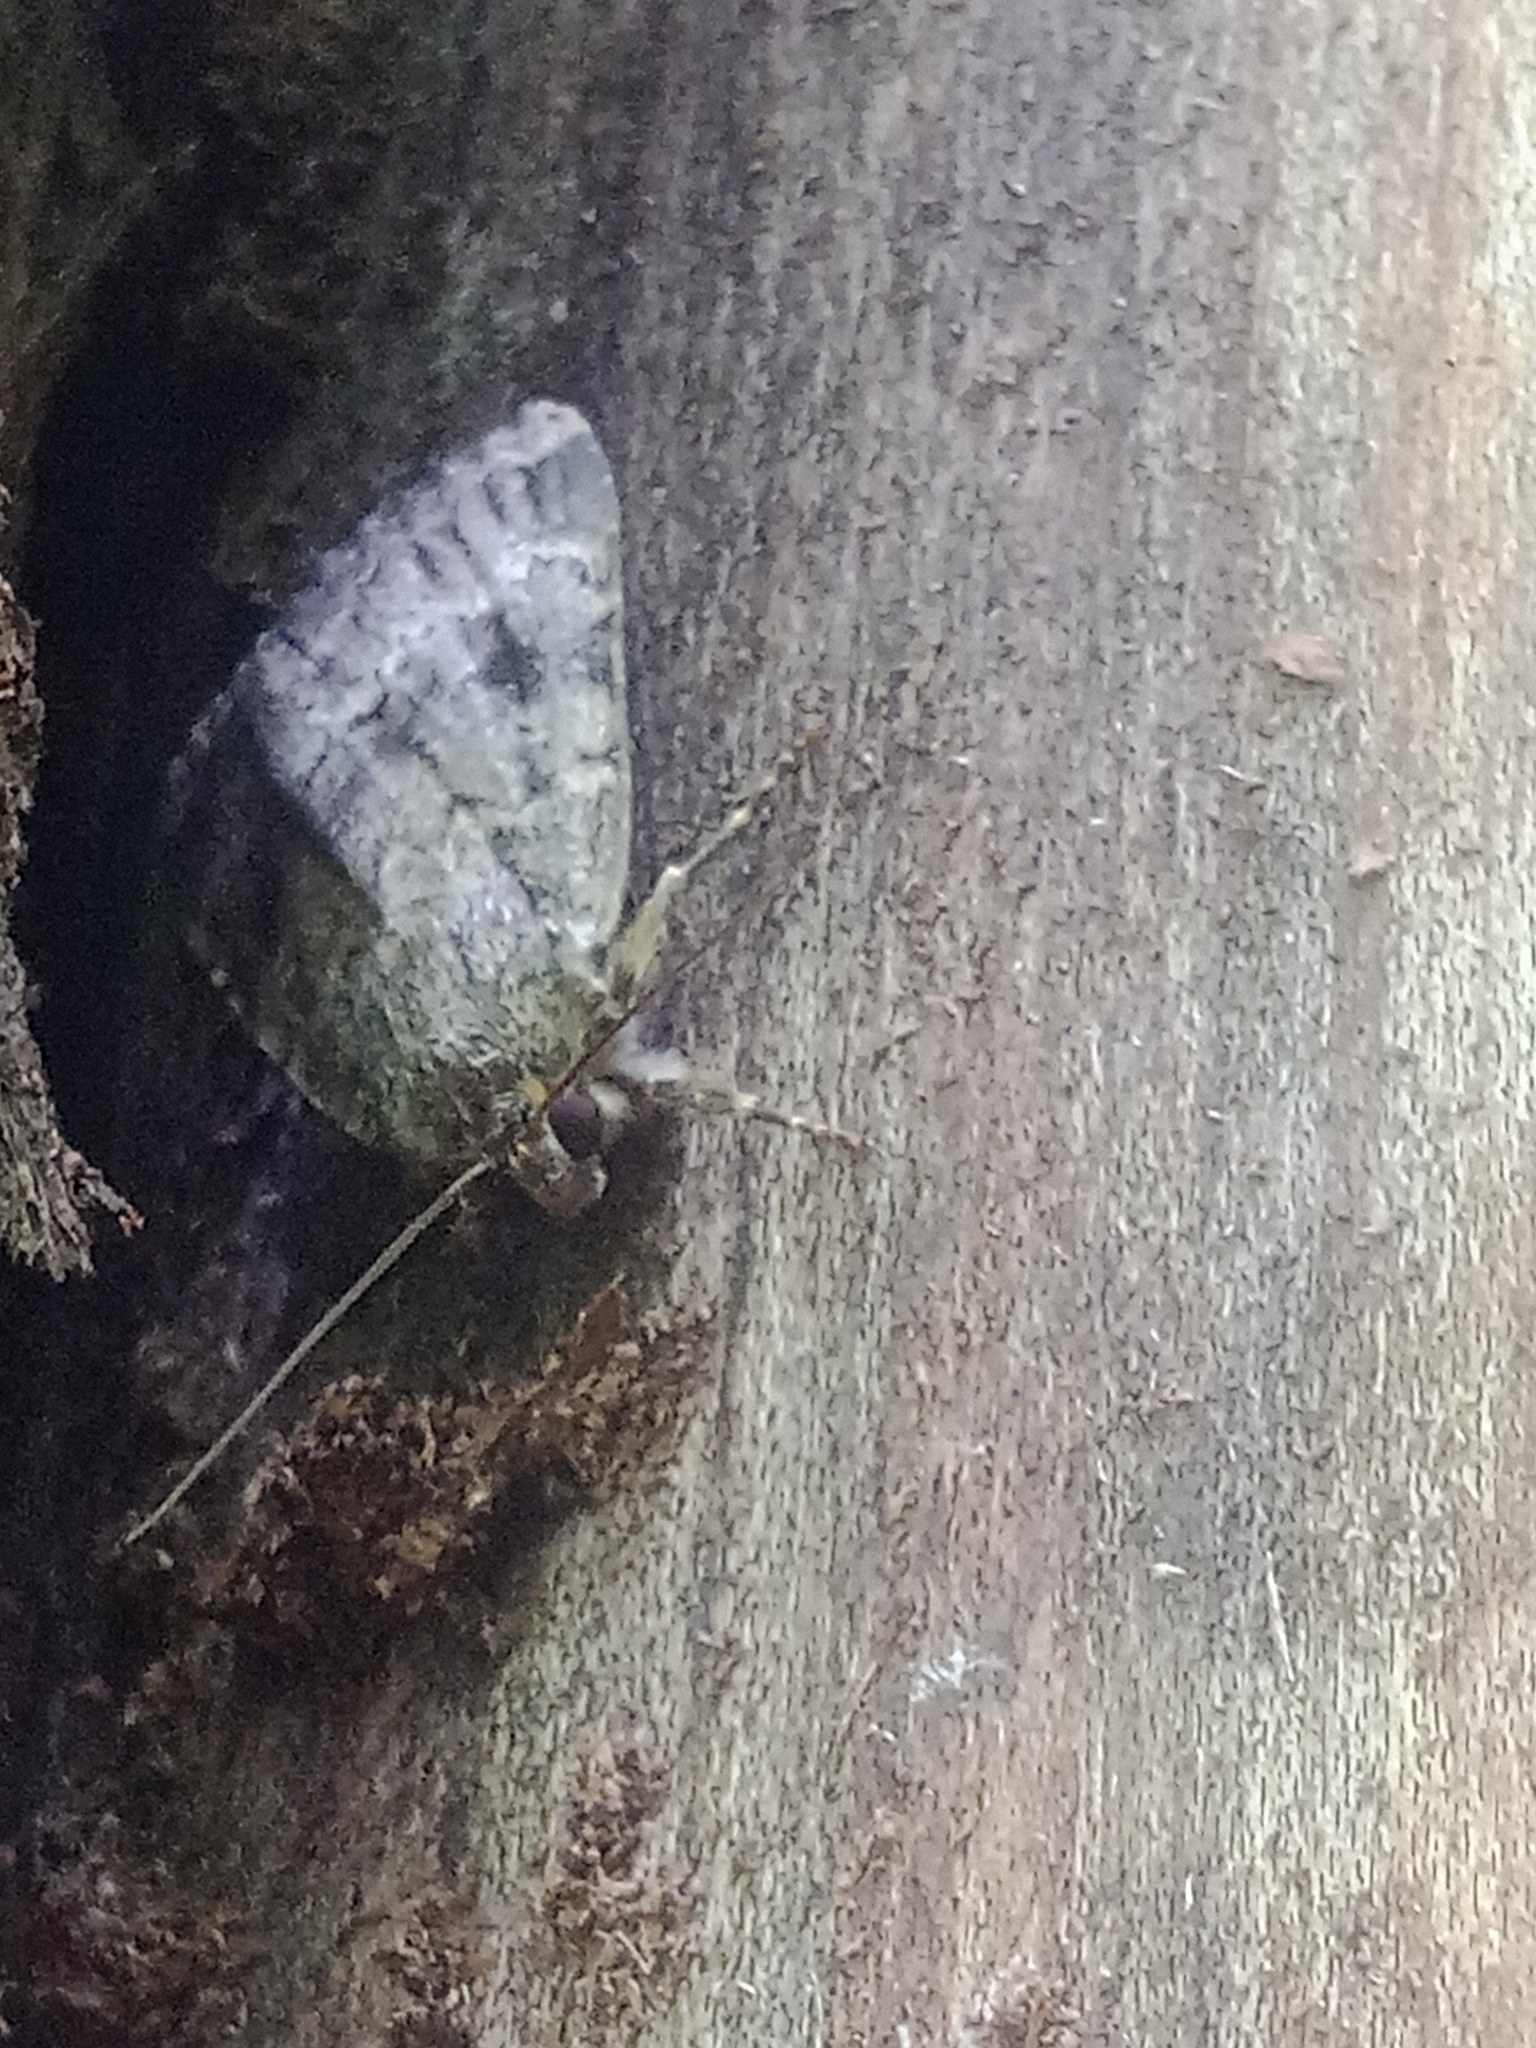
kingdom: Animalia
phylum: Arthropoda
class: Insecta
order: Lepidoptera
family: Noctuidae
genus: Amphipyra
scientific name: Amphipyra pyramidea
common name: Copper underwing
